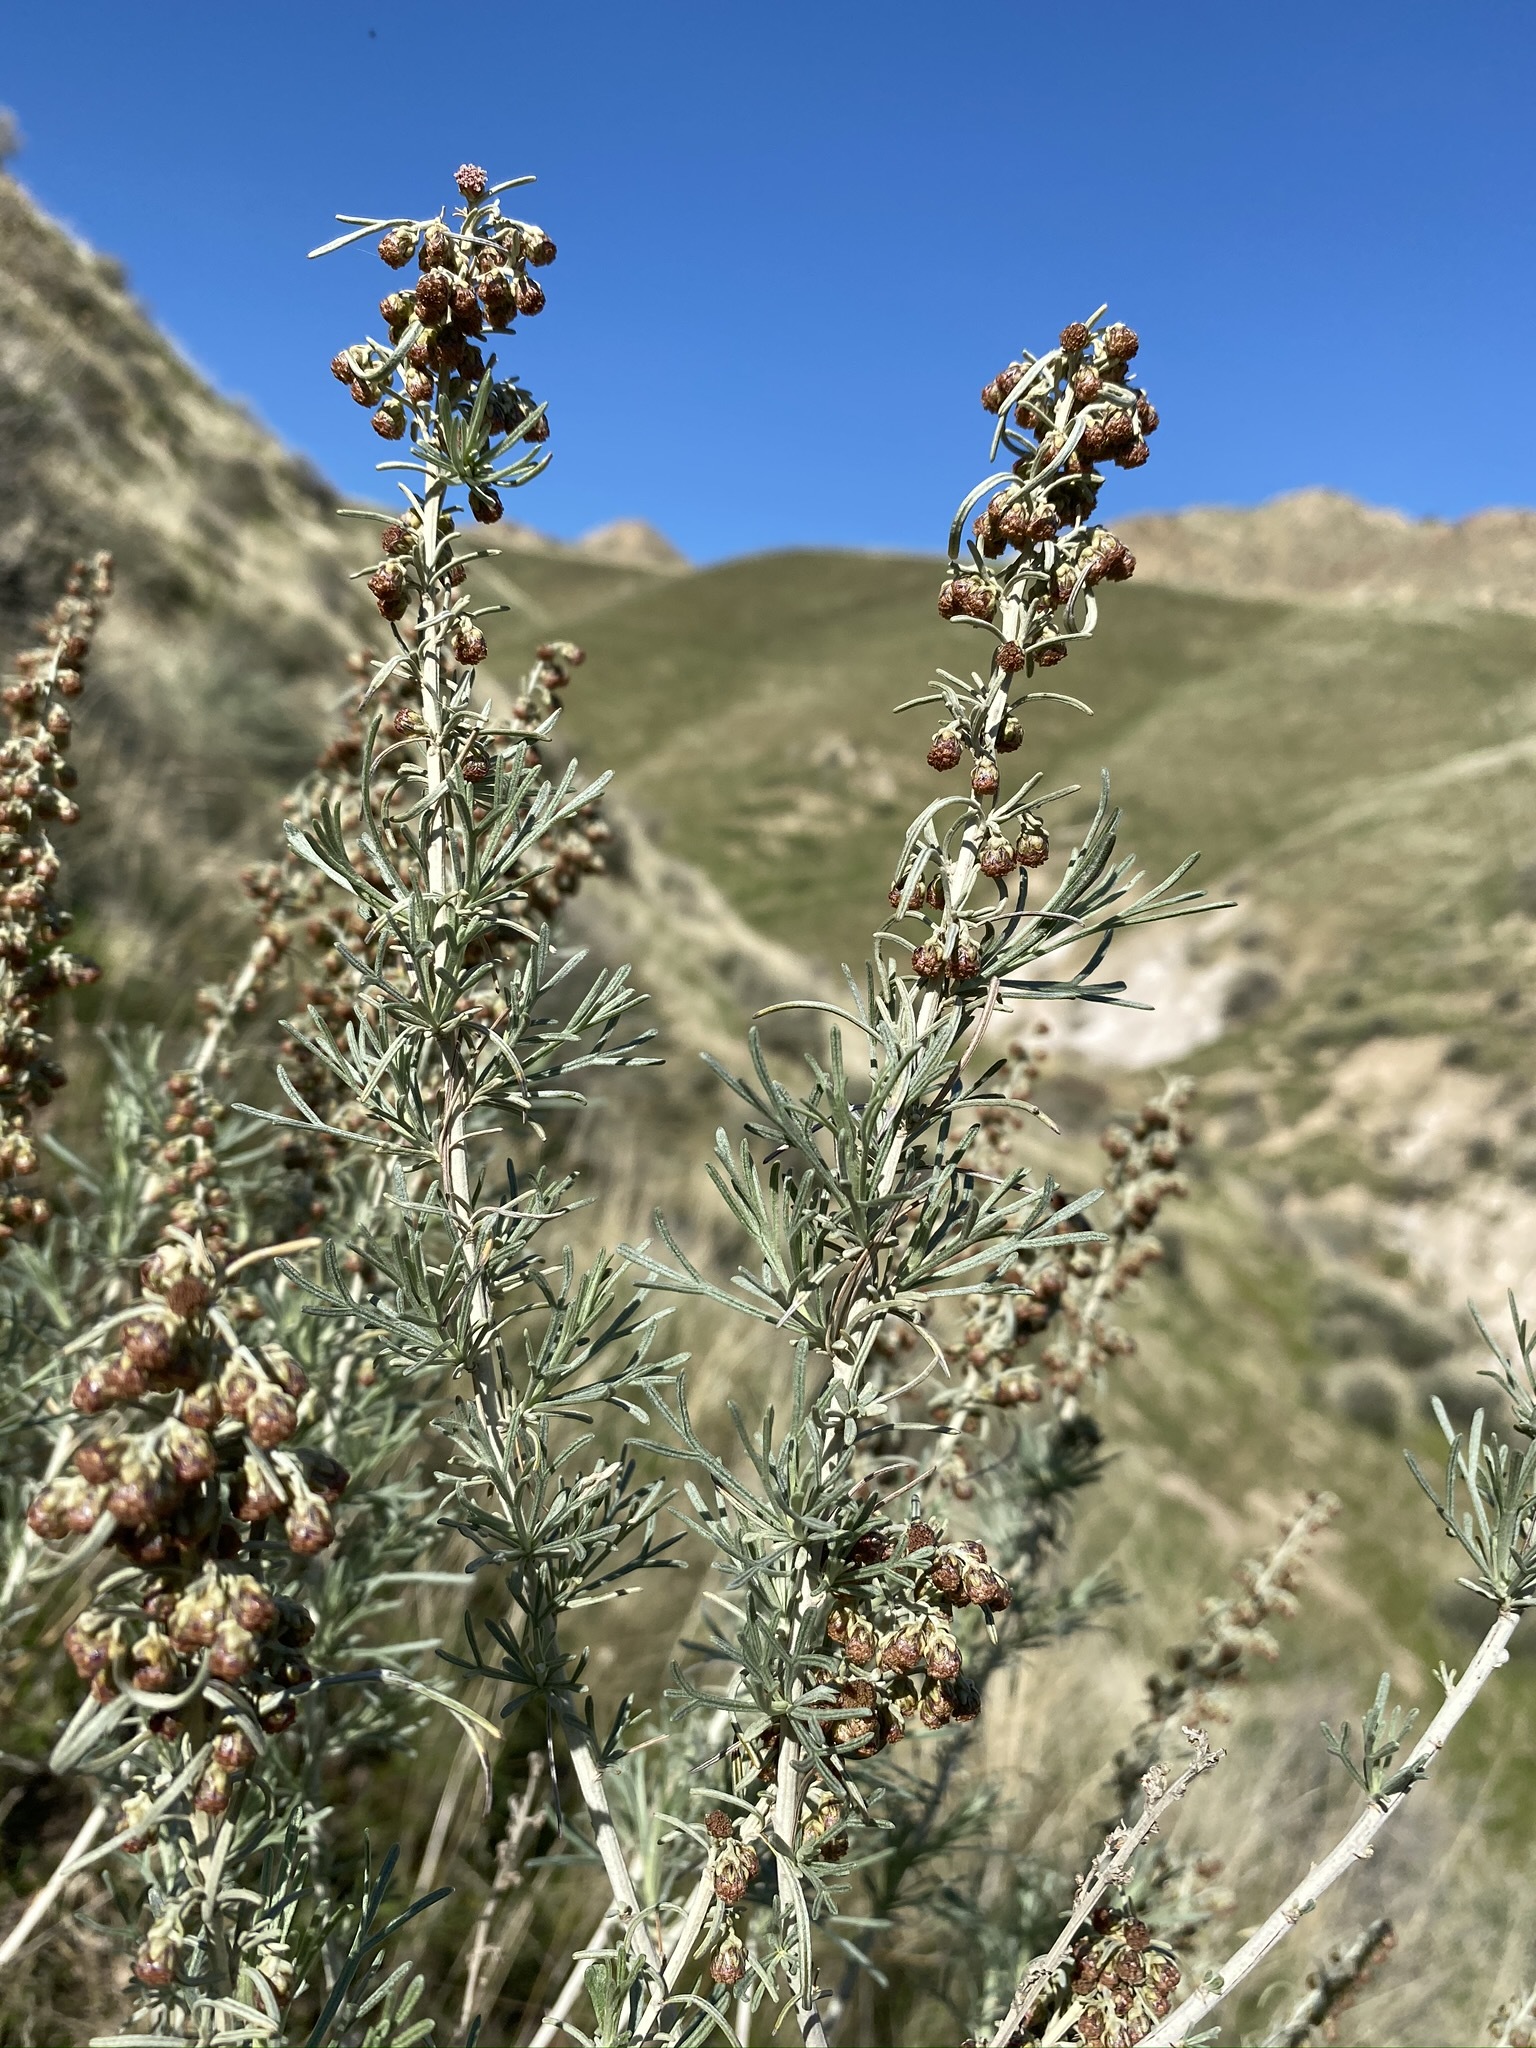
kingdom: Plantae
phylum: Tracheophyta
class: Magnoliopsida
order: Asterales
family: Asteraceae
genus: Artemisia
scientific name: Artemisia californica
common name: California sagebrush
